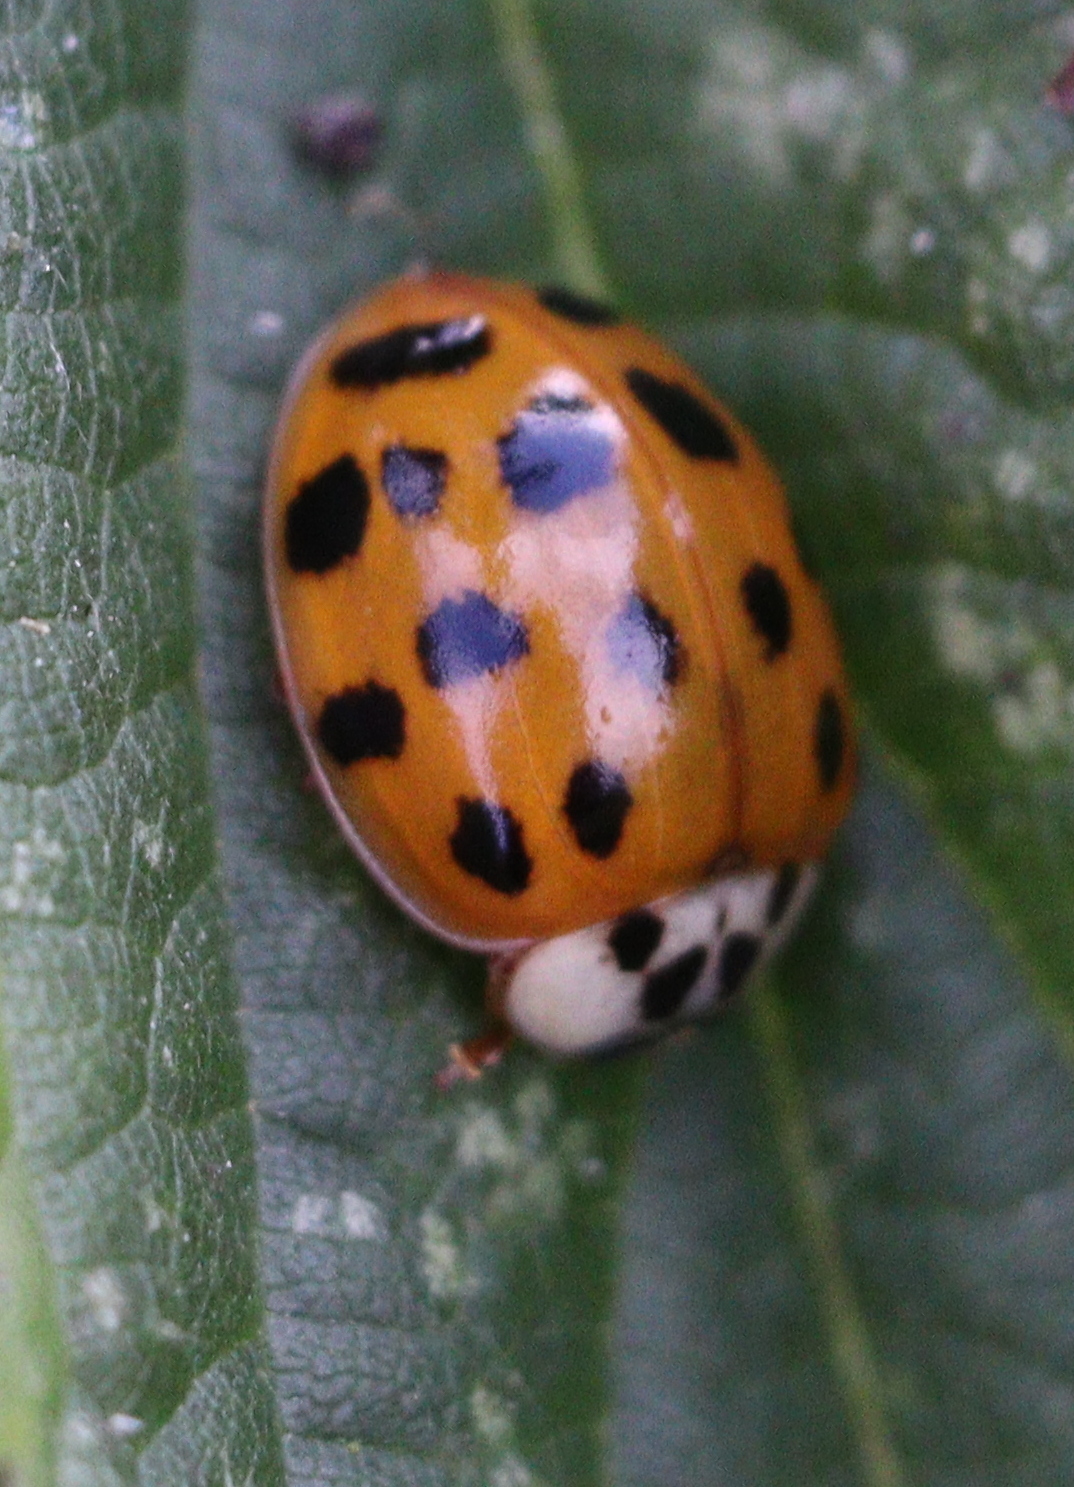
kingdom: Animalia
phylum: Arthropoda
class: Insecta
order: Coleoptera
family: Coccinellidae
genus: Harmonia
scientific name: Harmonia axyridis
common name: Harlequin ladybird
